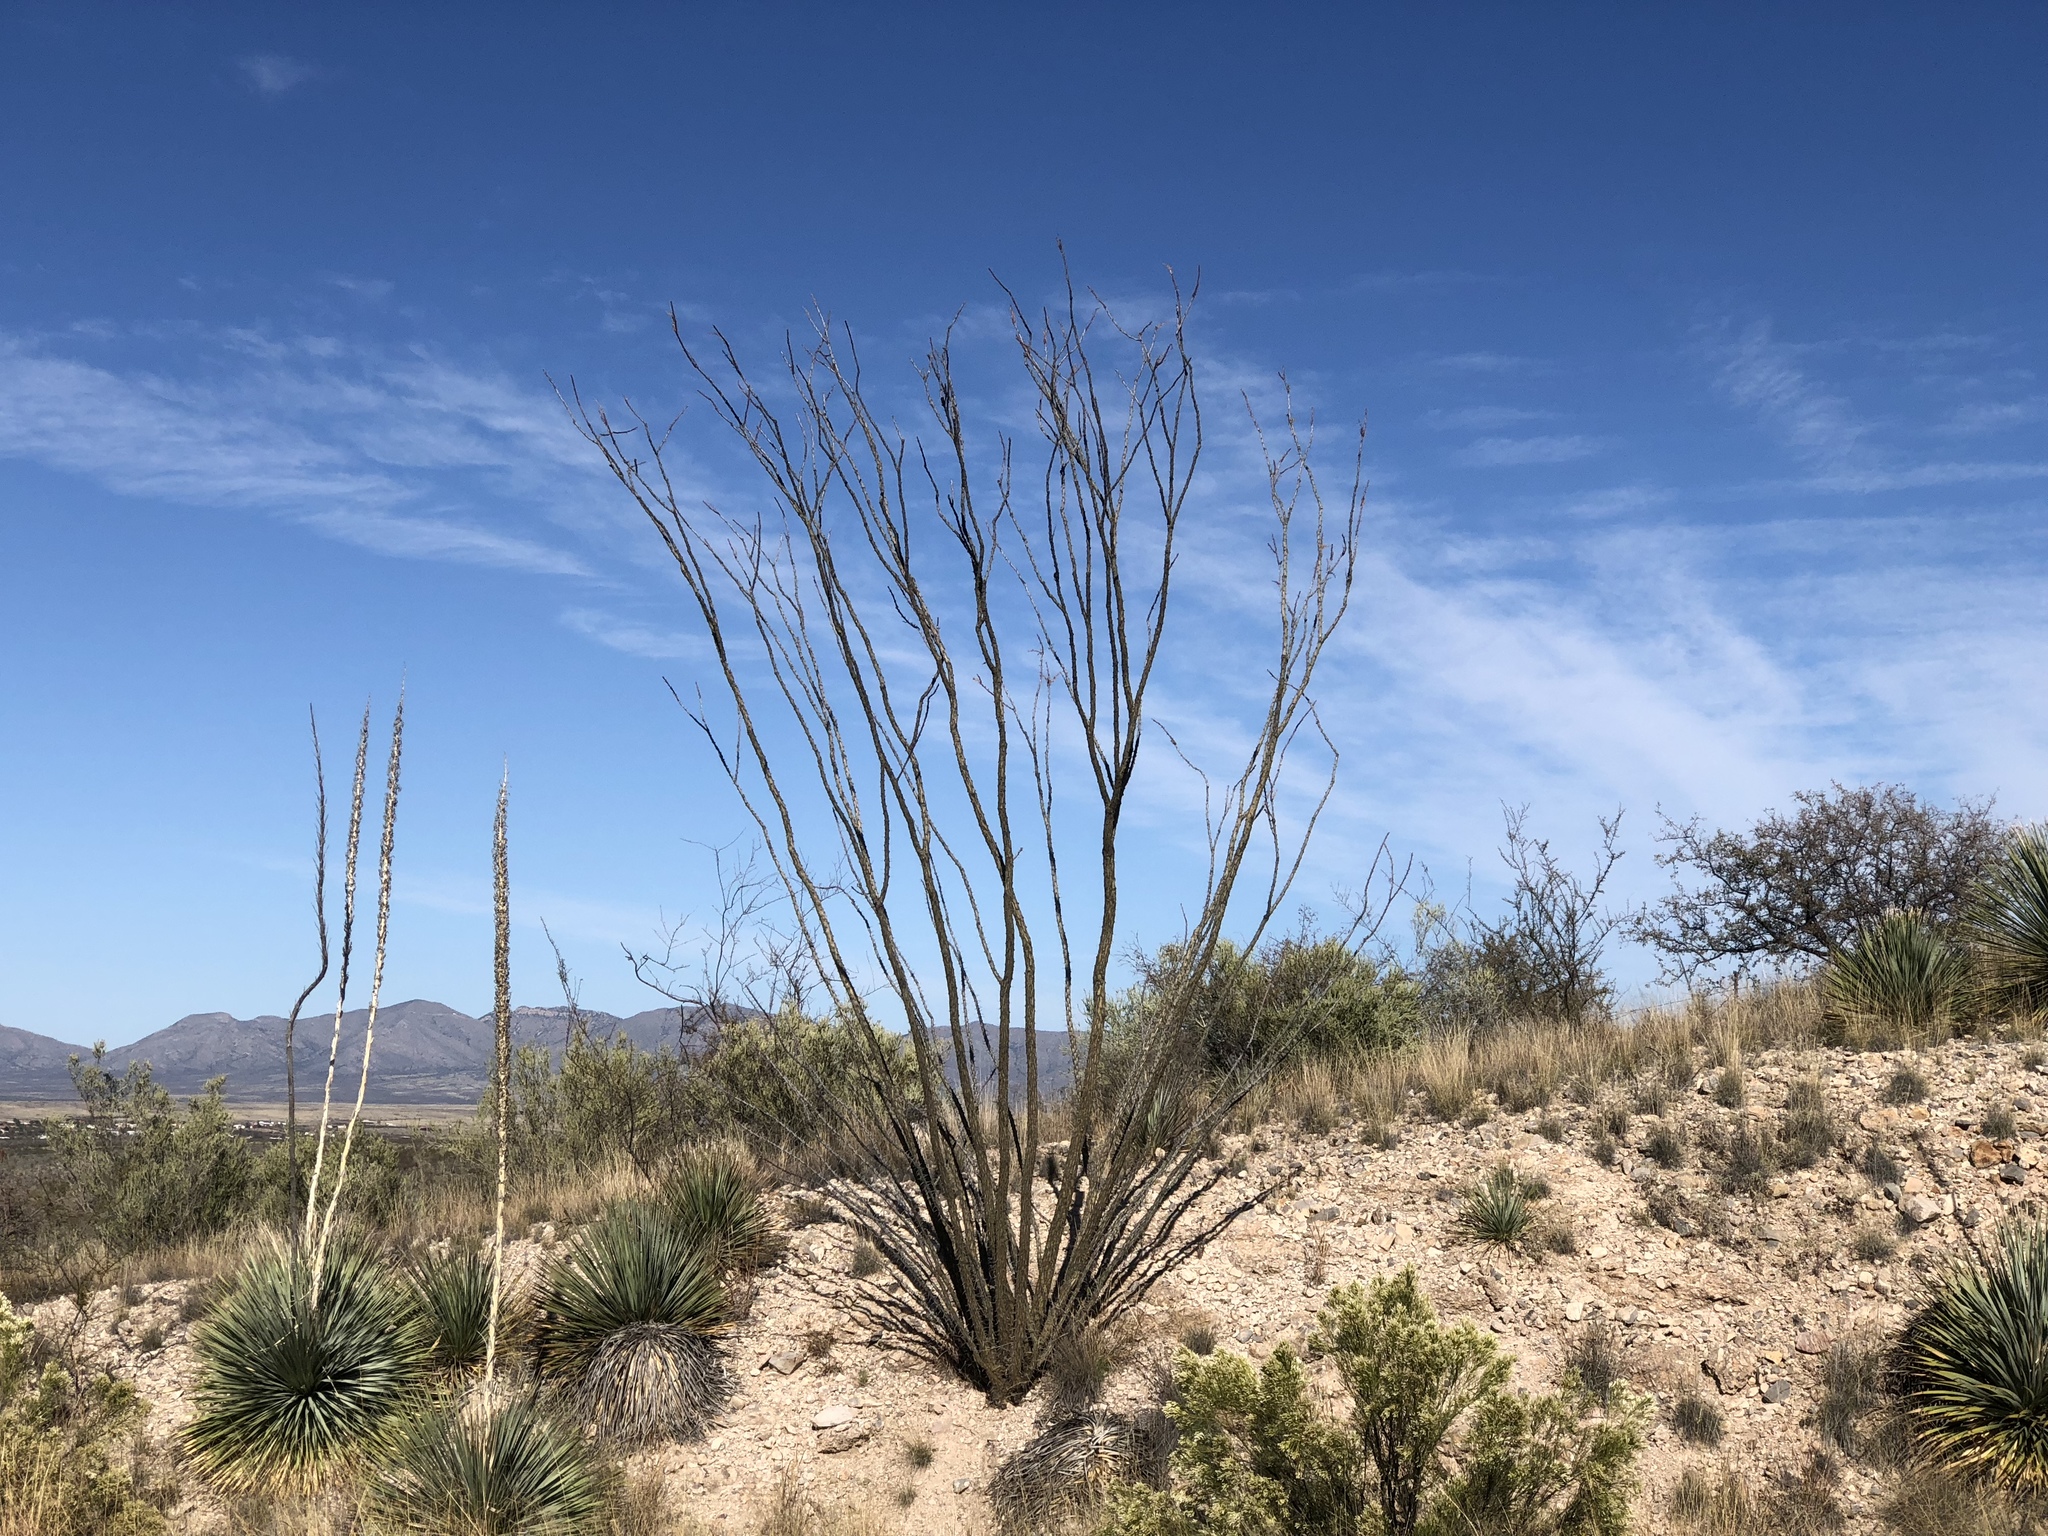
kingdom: Plantae
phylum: Tracheophyta
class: Magnoliopsida
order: Ericales
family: Fouquieriaceae
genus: Fouquieria
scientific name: Fouquieria splendens
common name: Vine-cactus
